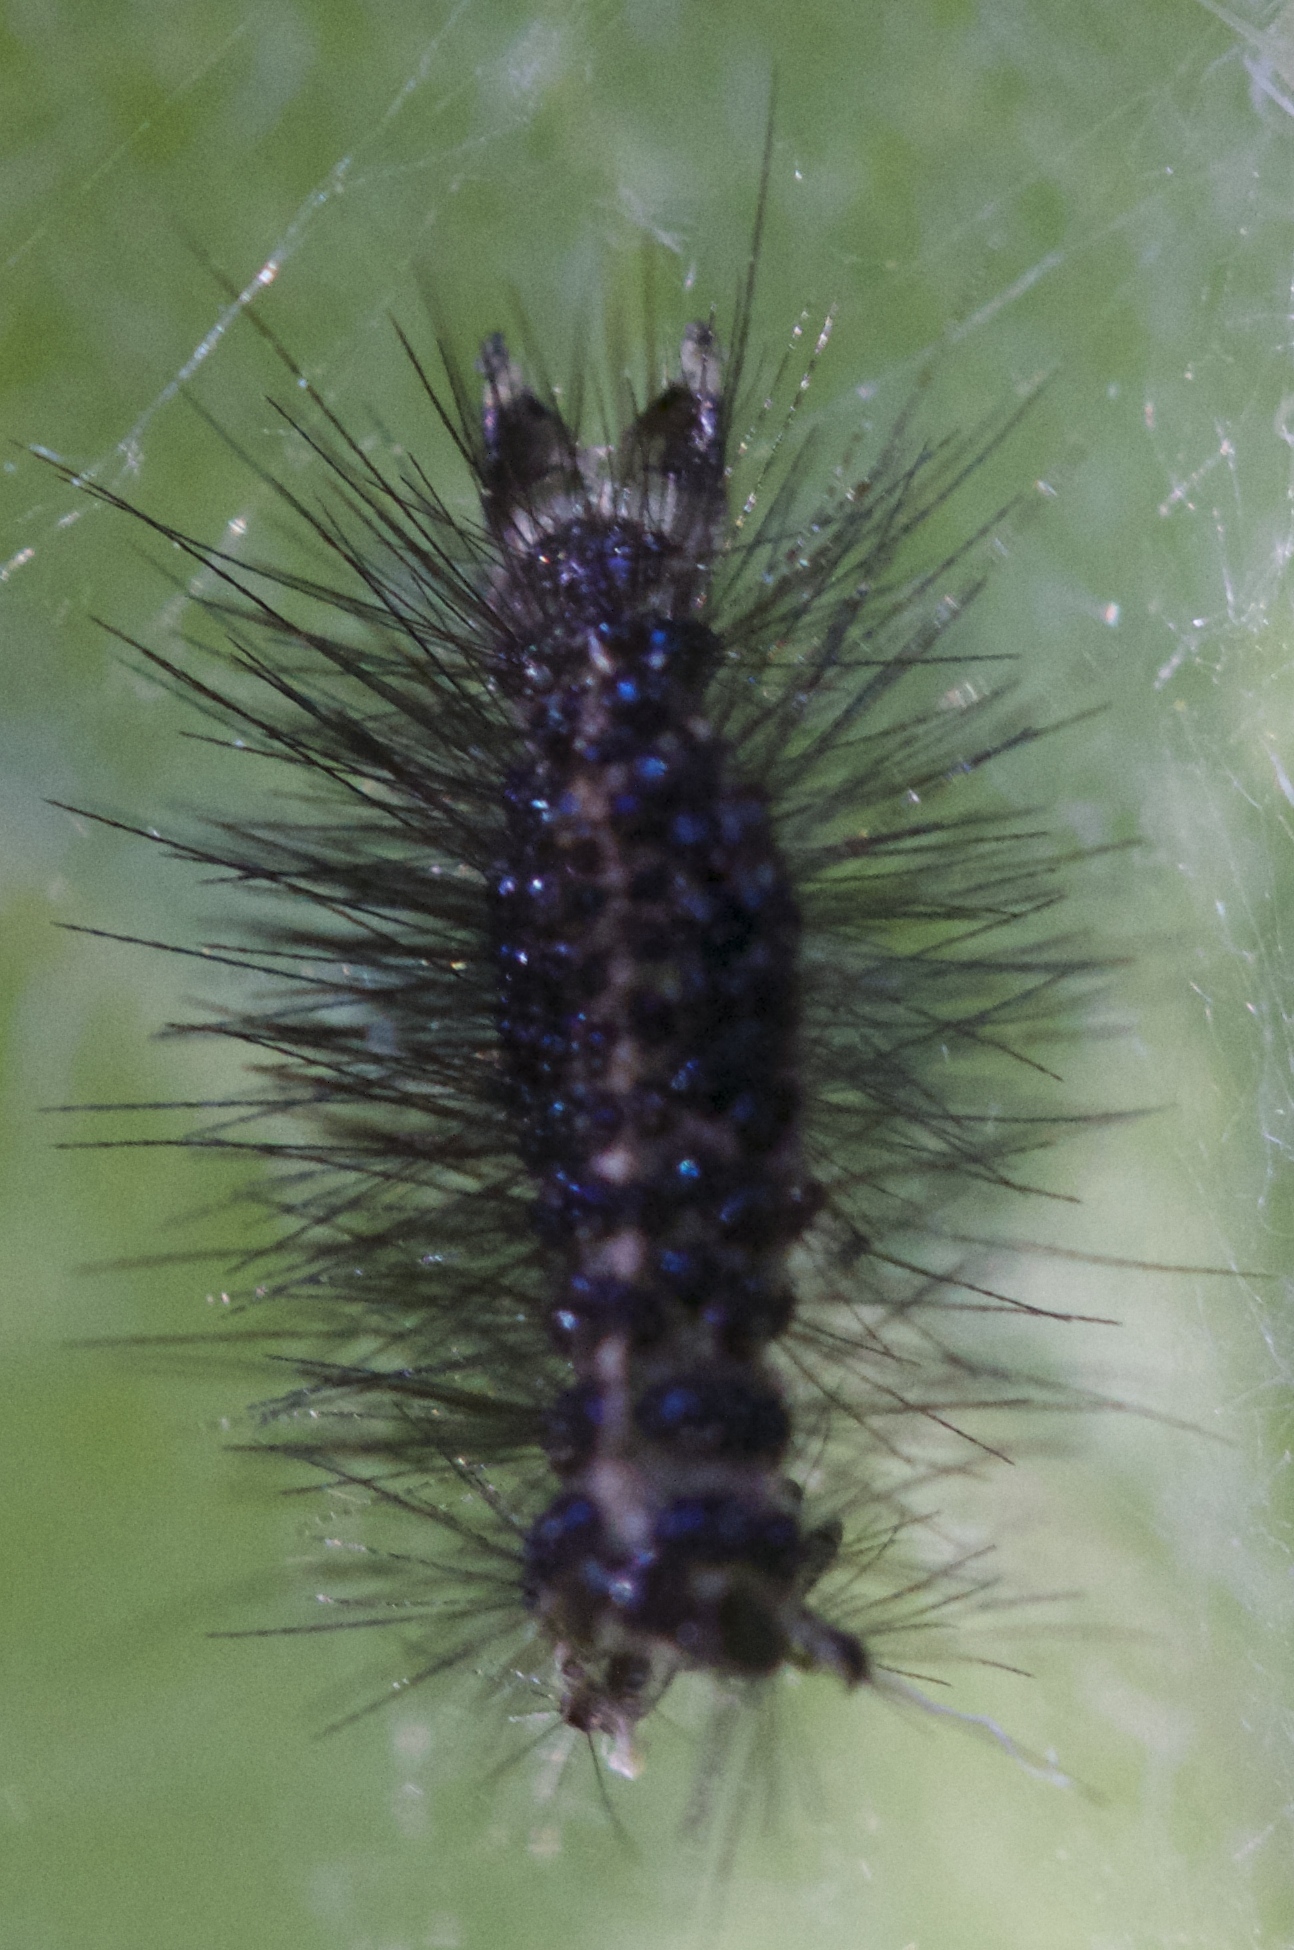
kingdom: Animalia
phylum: Arthropoda
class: Insecta
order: Lepidoptera
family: Erebidae
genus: Gnophaela
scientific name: Gnophaela latipennis
